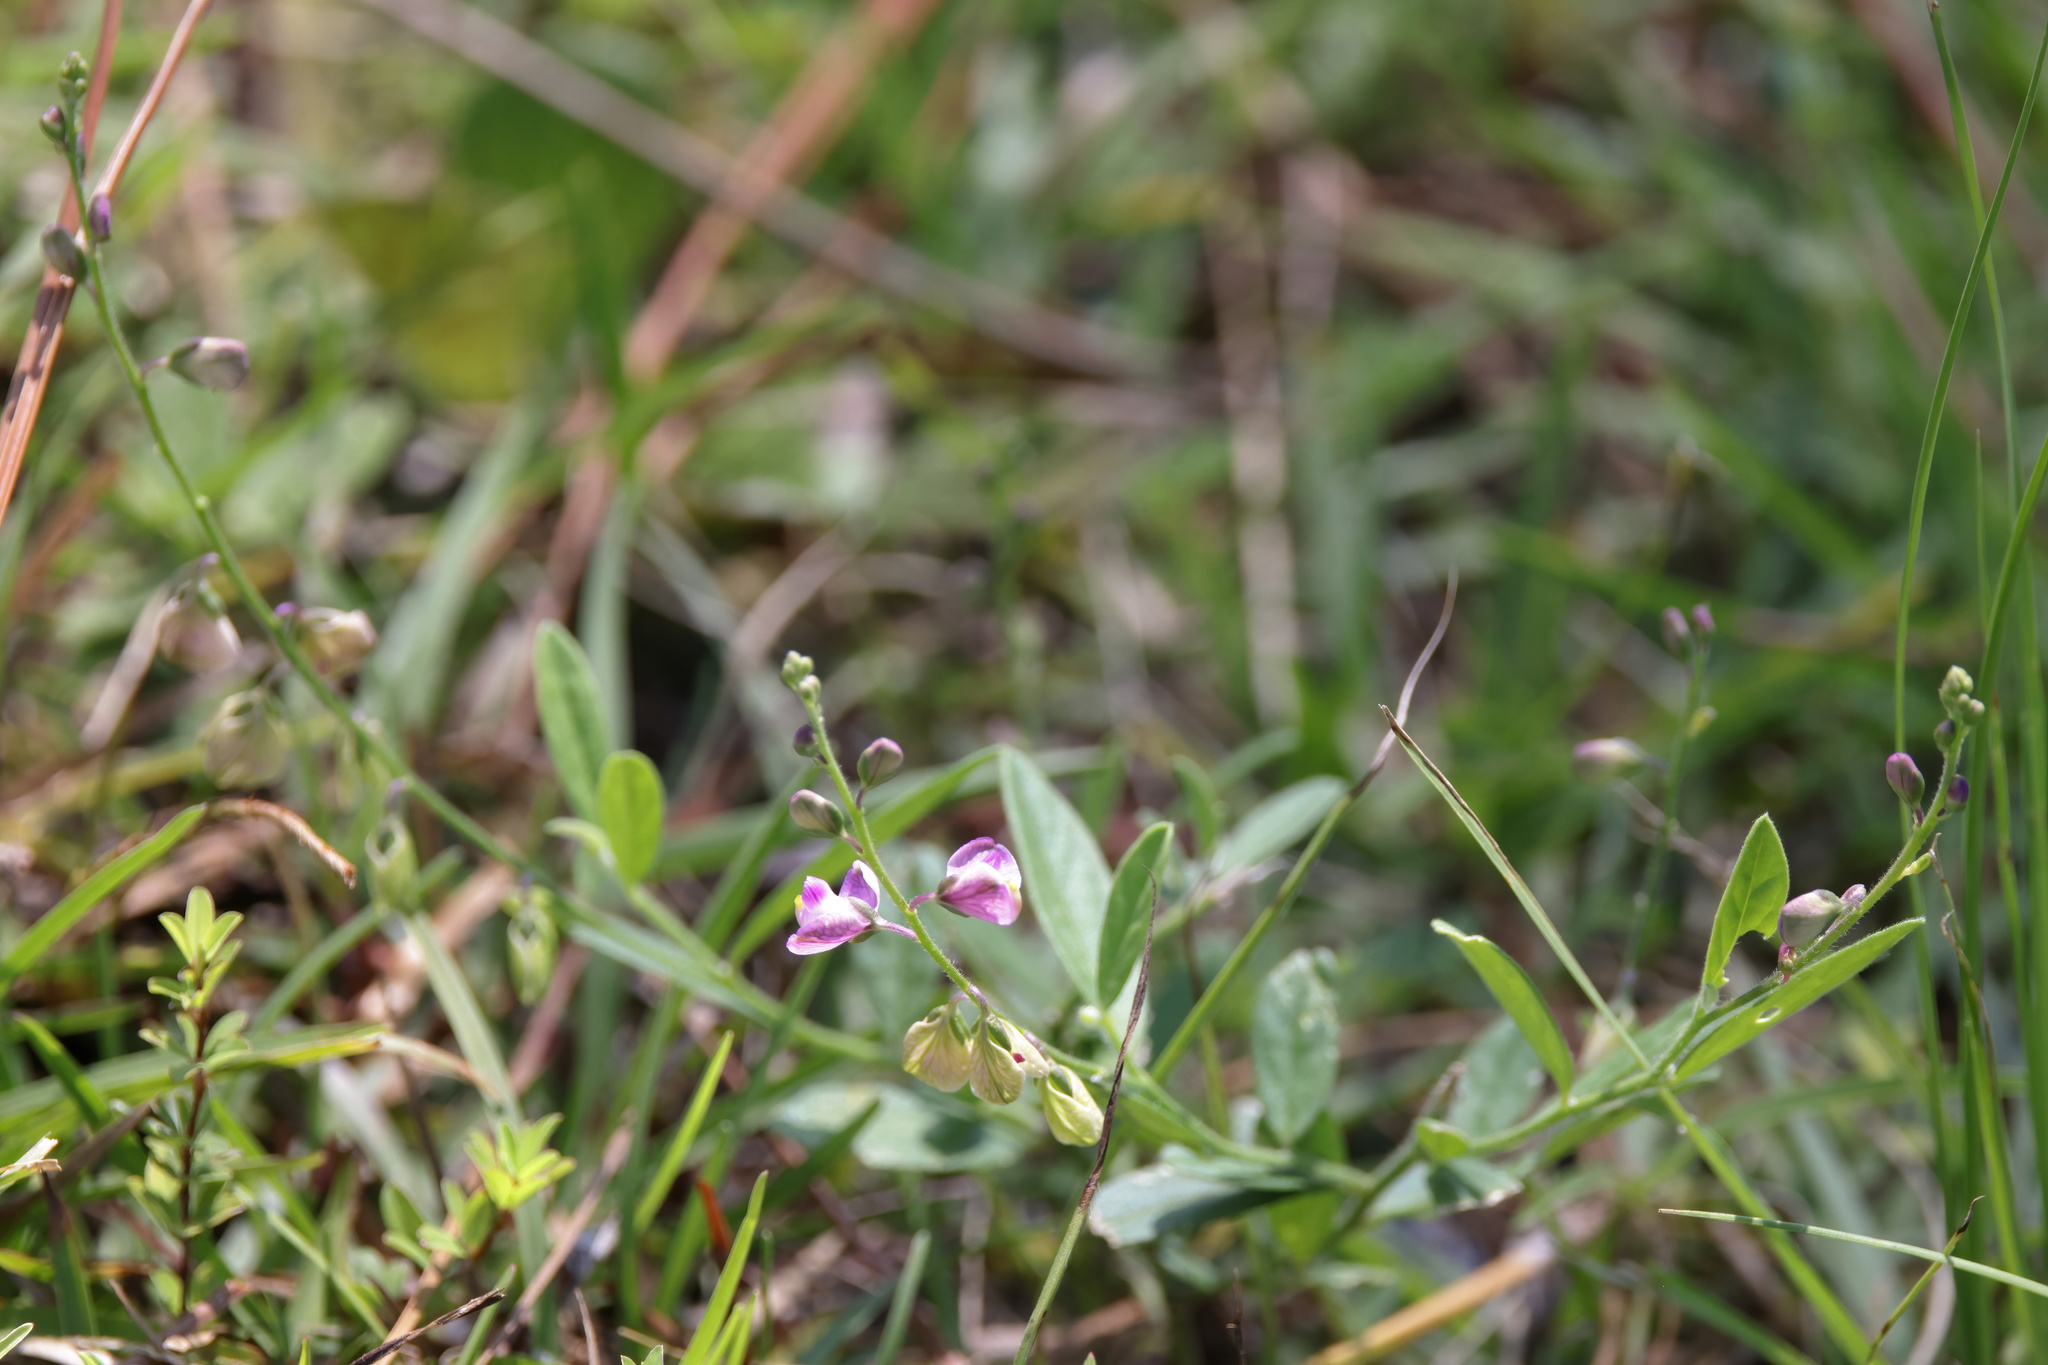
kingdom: Plantae
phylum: Tracheophyta
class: Magnoliopsida
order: Fabales
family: Polygalaceae
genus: Asemeia
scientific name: Asemeia grandiflora
